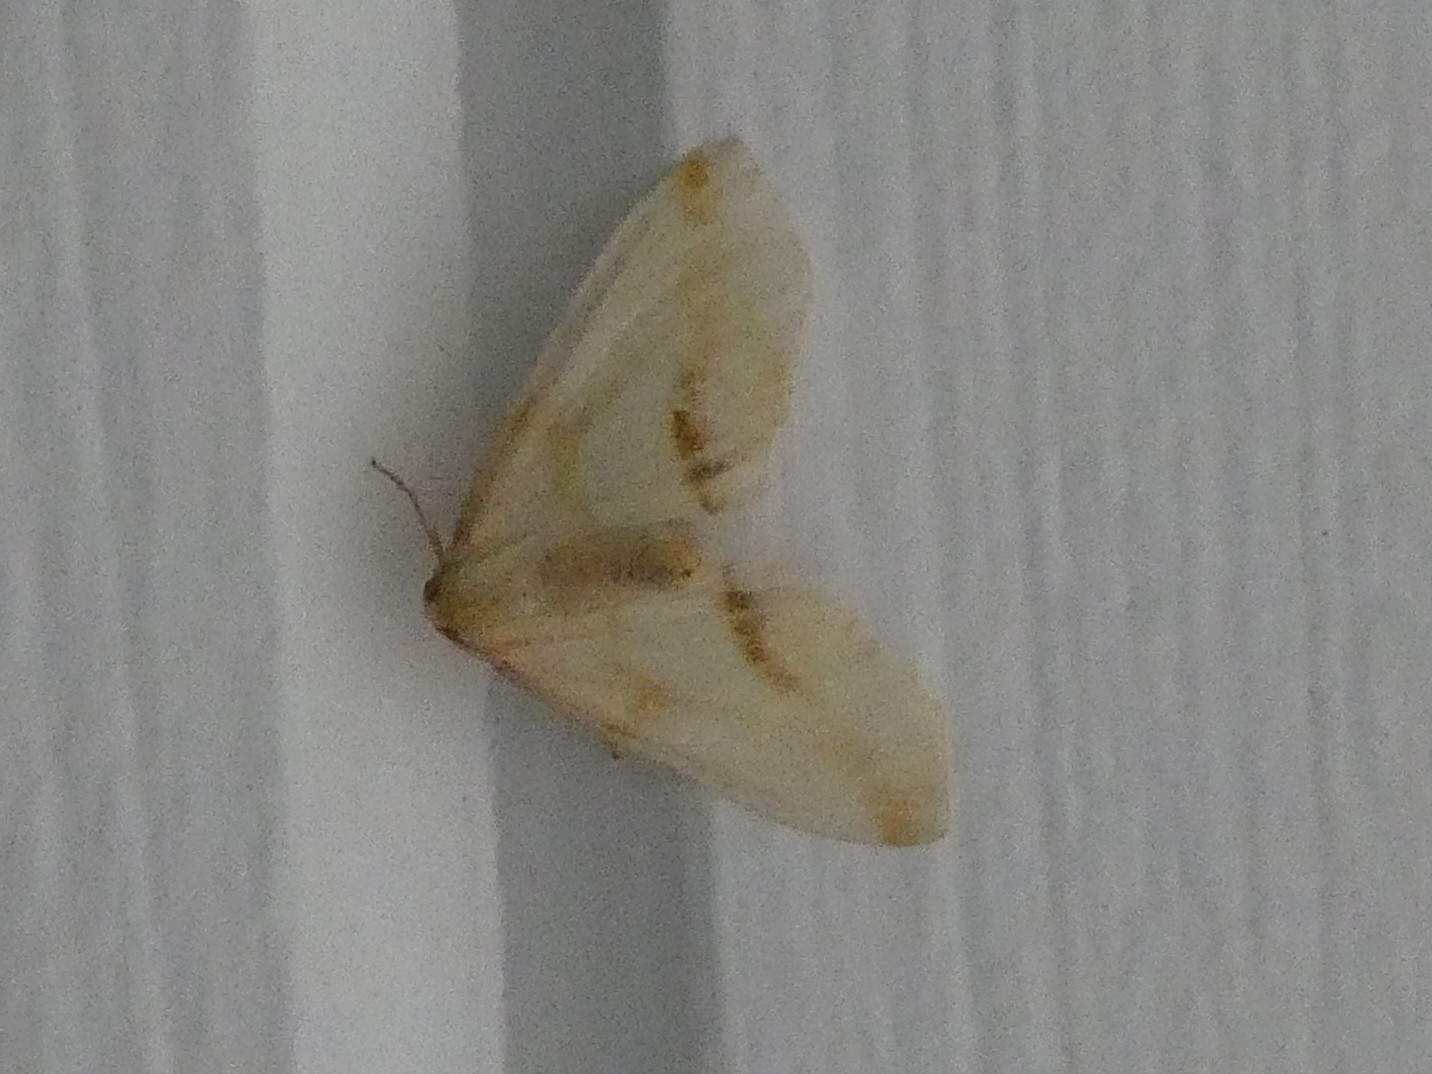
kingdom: Animalia
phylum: Arthropoda
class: Insecta
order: Lepidoptera
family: Geometridae
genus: Plagodis
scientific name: Plagodis serinaria
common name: Lemon plagodis
